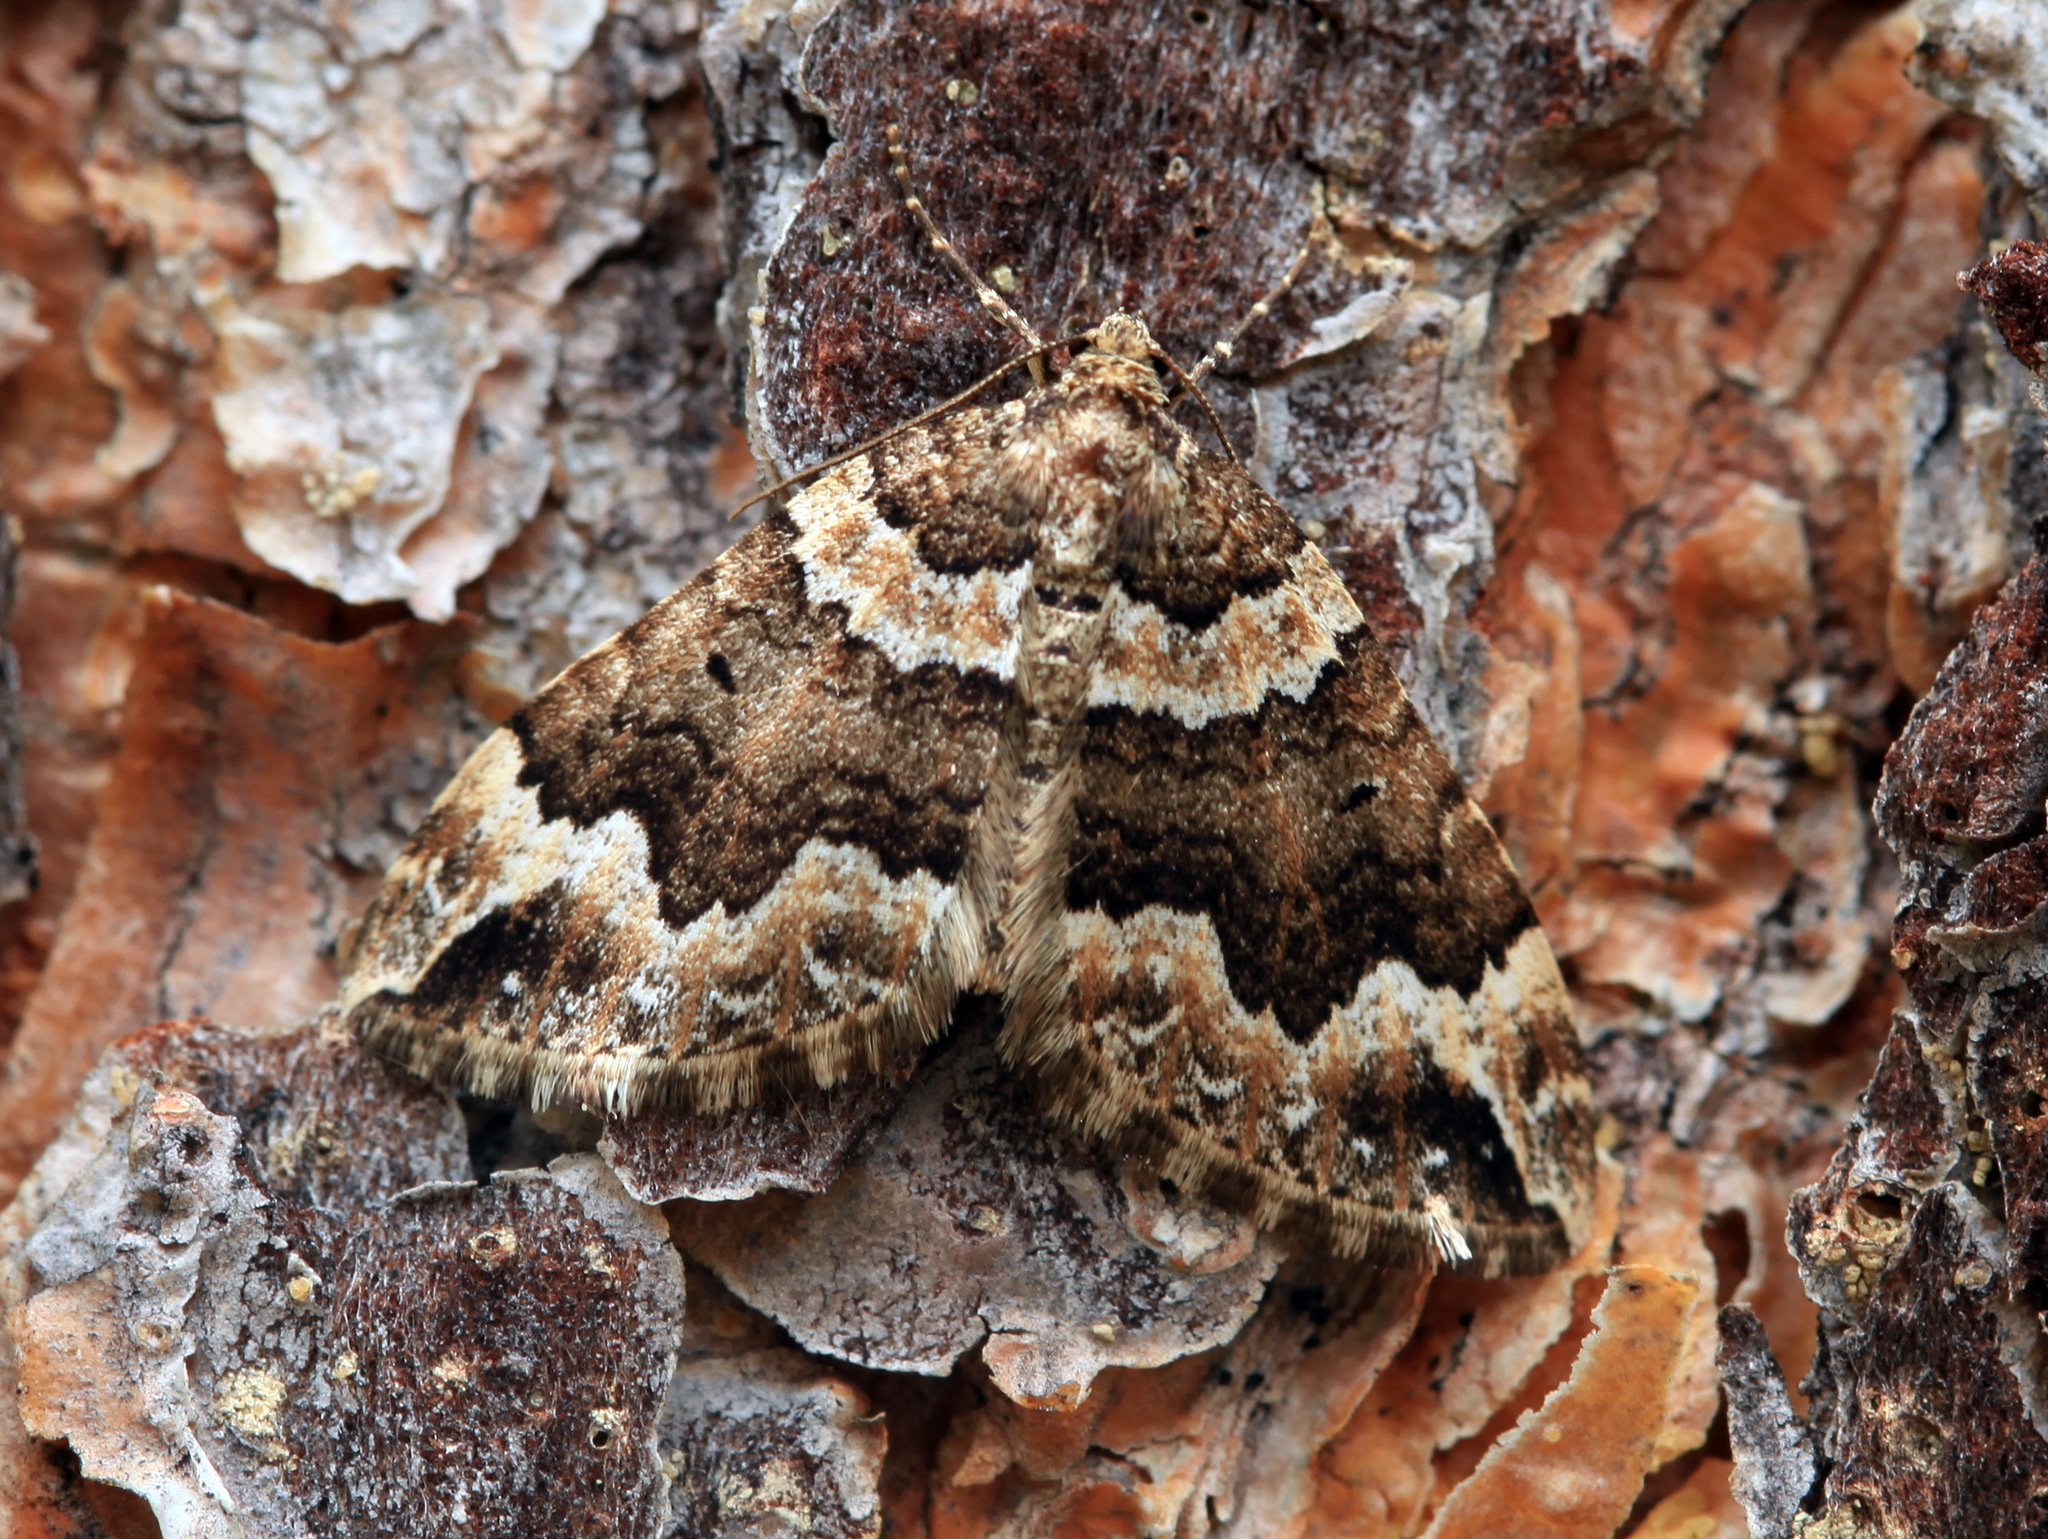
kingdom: Animalia
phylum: Arthropoda
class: Insecta
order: Lepidoptera
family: Geometridae
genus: Lampropteryx
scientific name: Lampropteryx suffumata
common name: Water carpet
